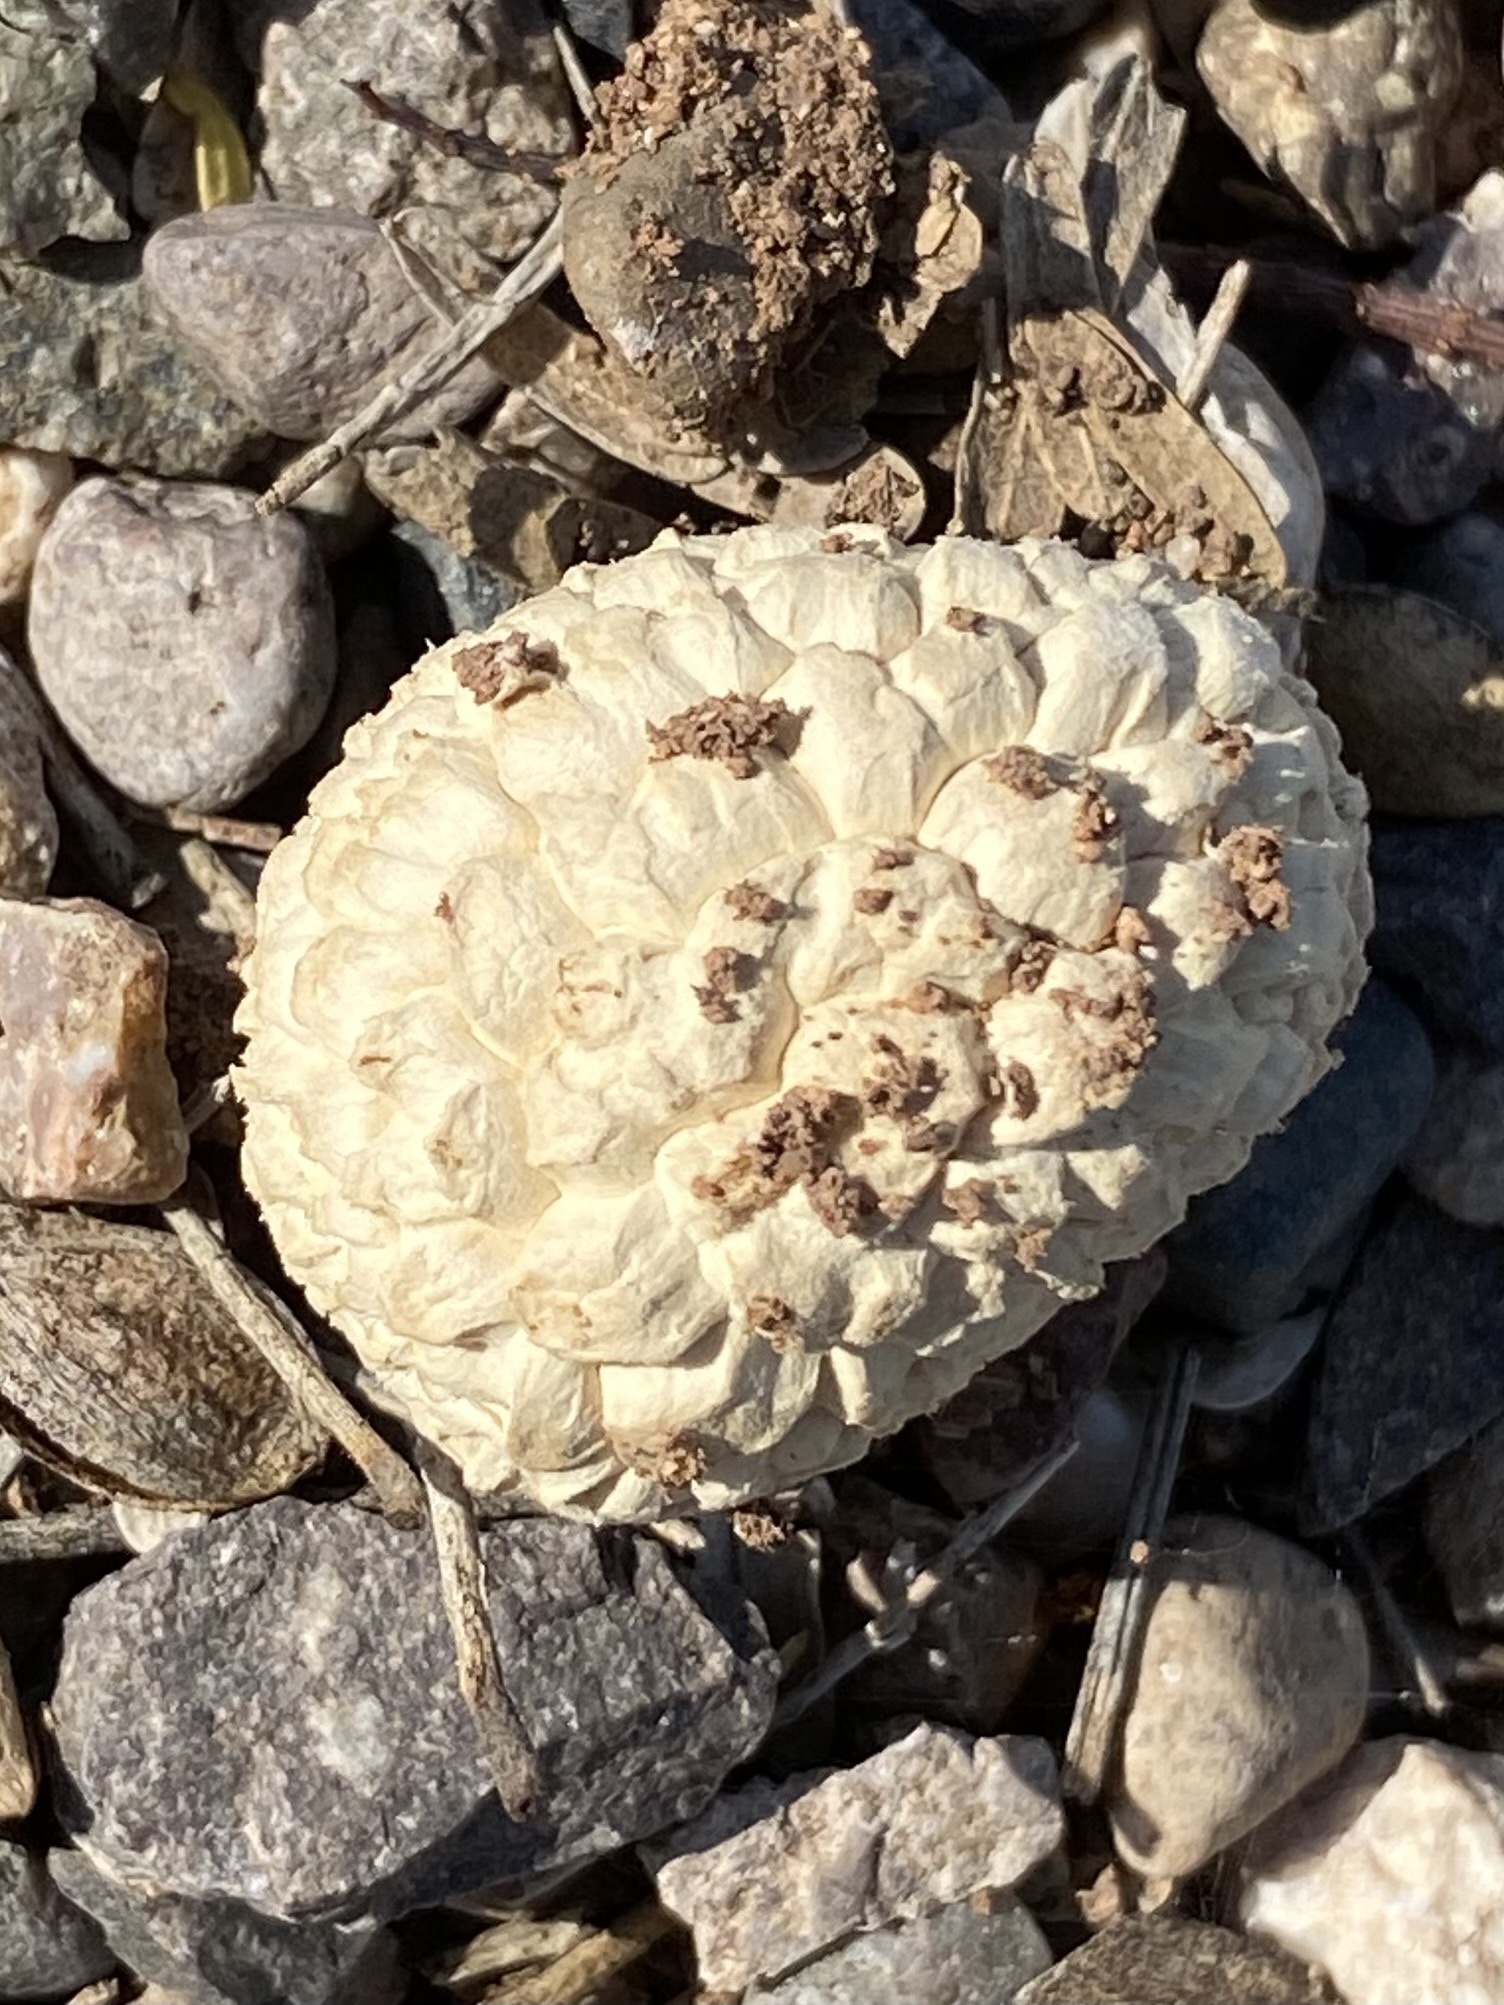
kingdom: Fungi
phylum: Basidiomycota
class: Agaricomycetes
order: Agaricales
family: Agaricaceae
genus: Agaricus
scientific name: Agaricus deserticola
